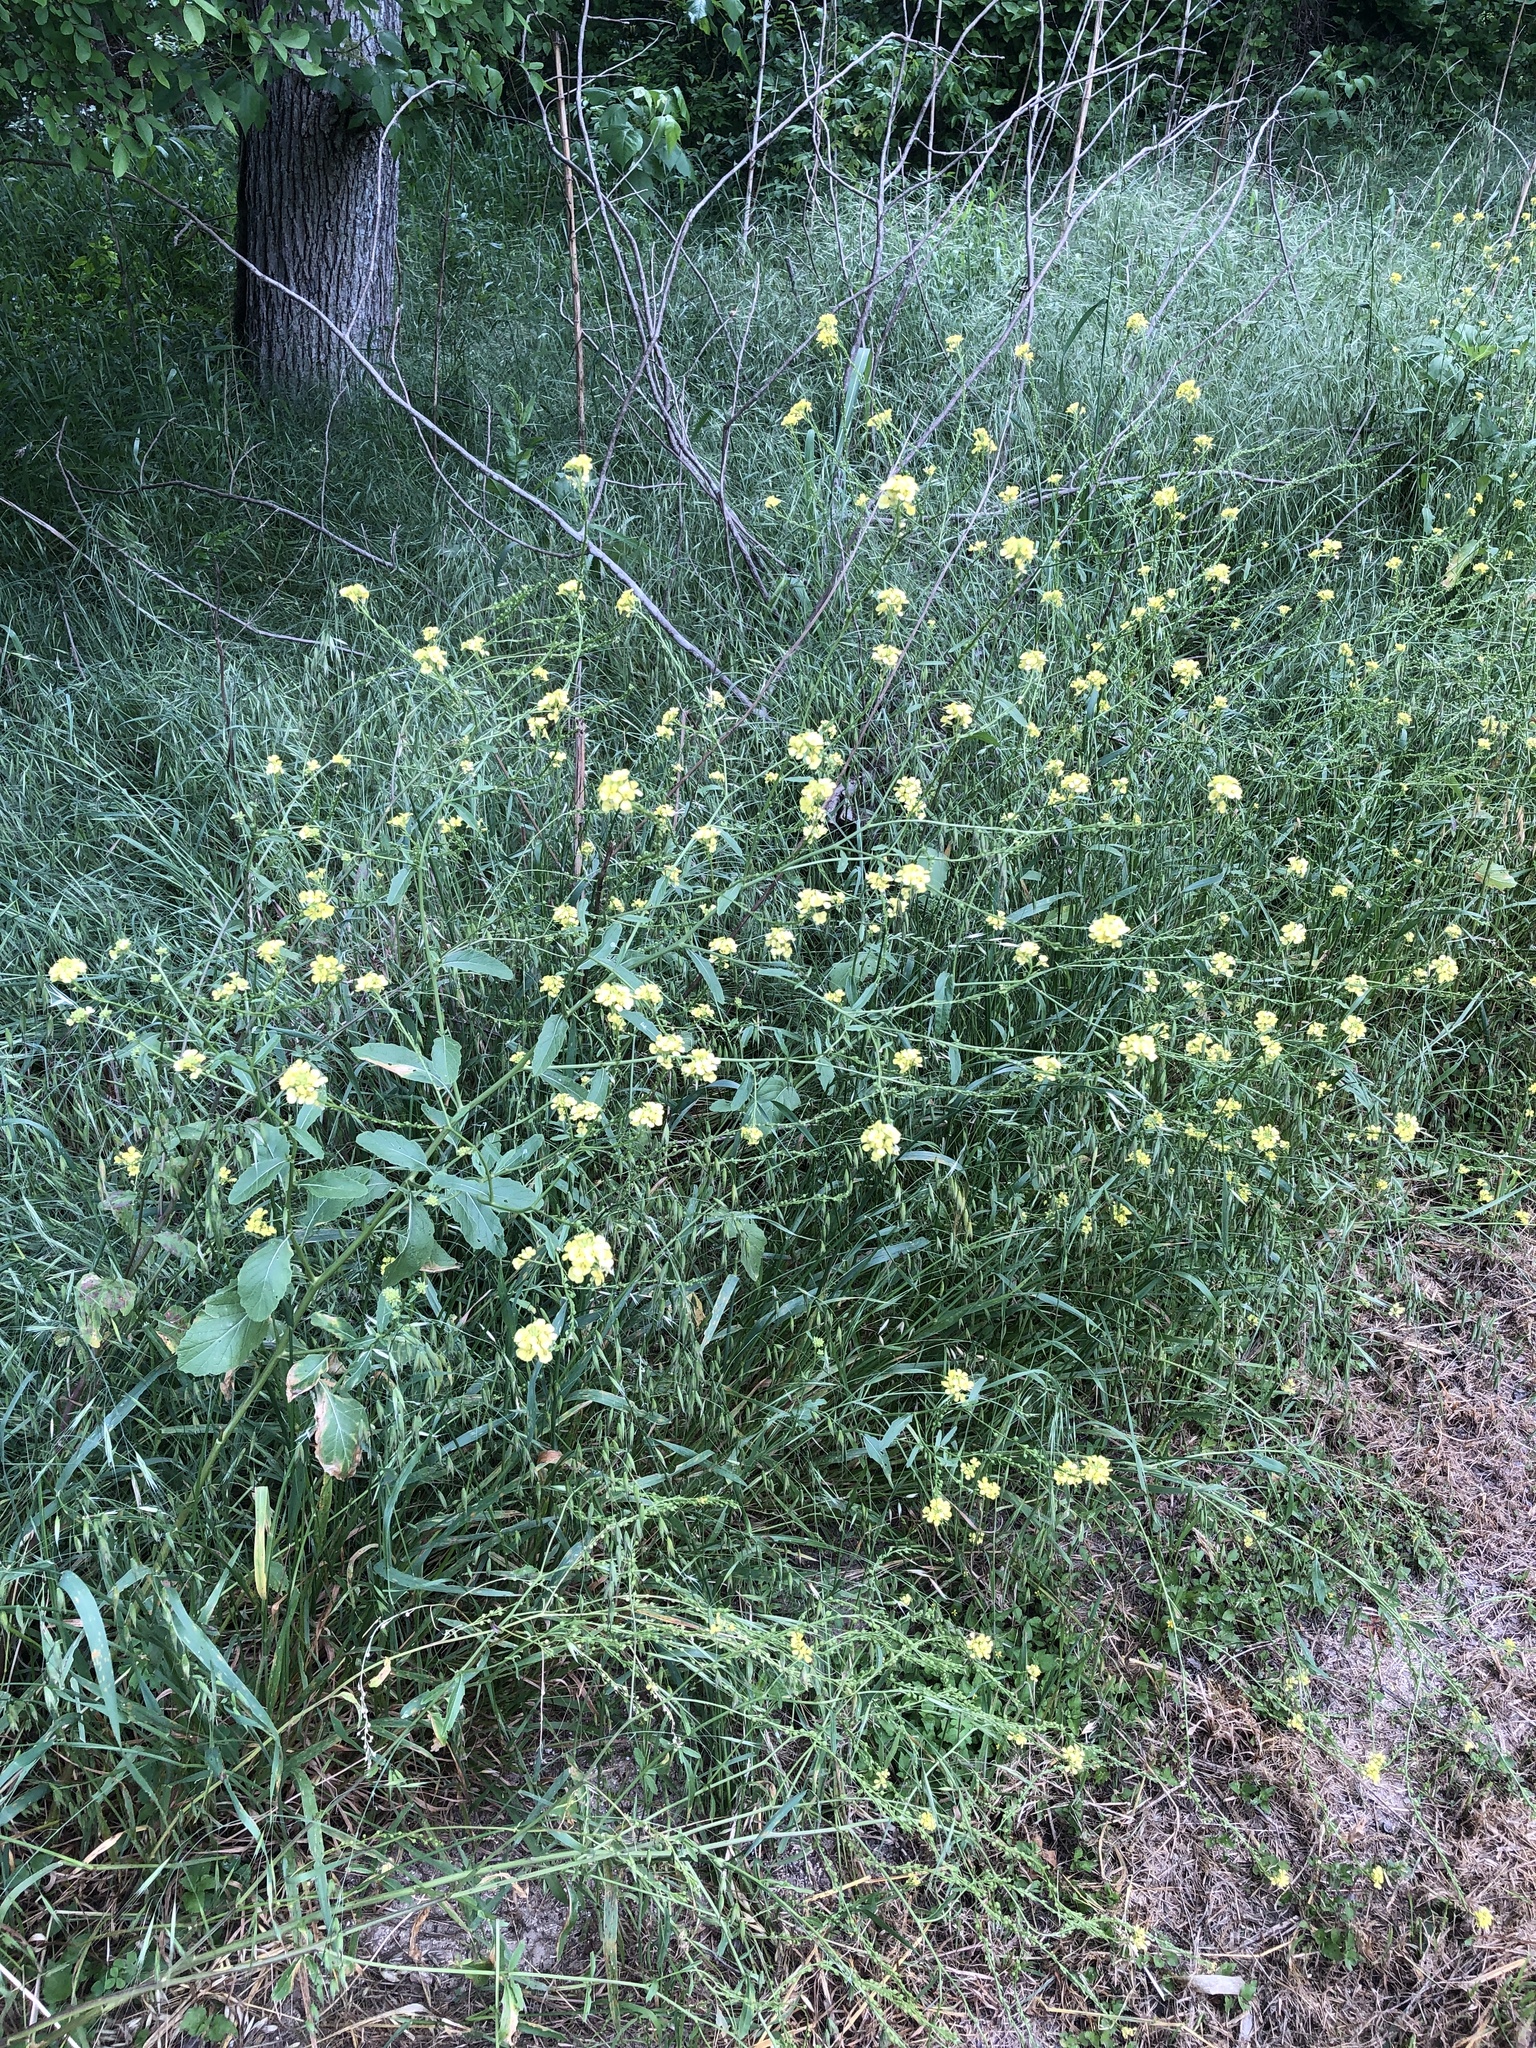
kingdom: Plantae
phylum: Tracheophyta
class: Magnoliopsida
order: Brassicales
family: Brassicaceae
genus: Rapistrum
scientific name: Rapistrum rugosum
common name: Annual bastardcabbage
